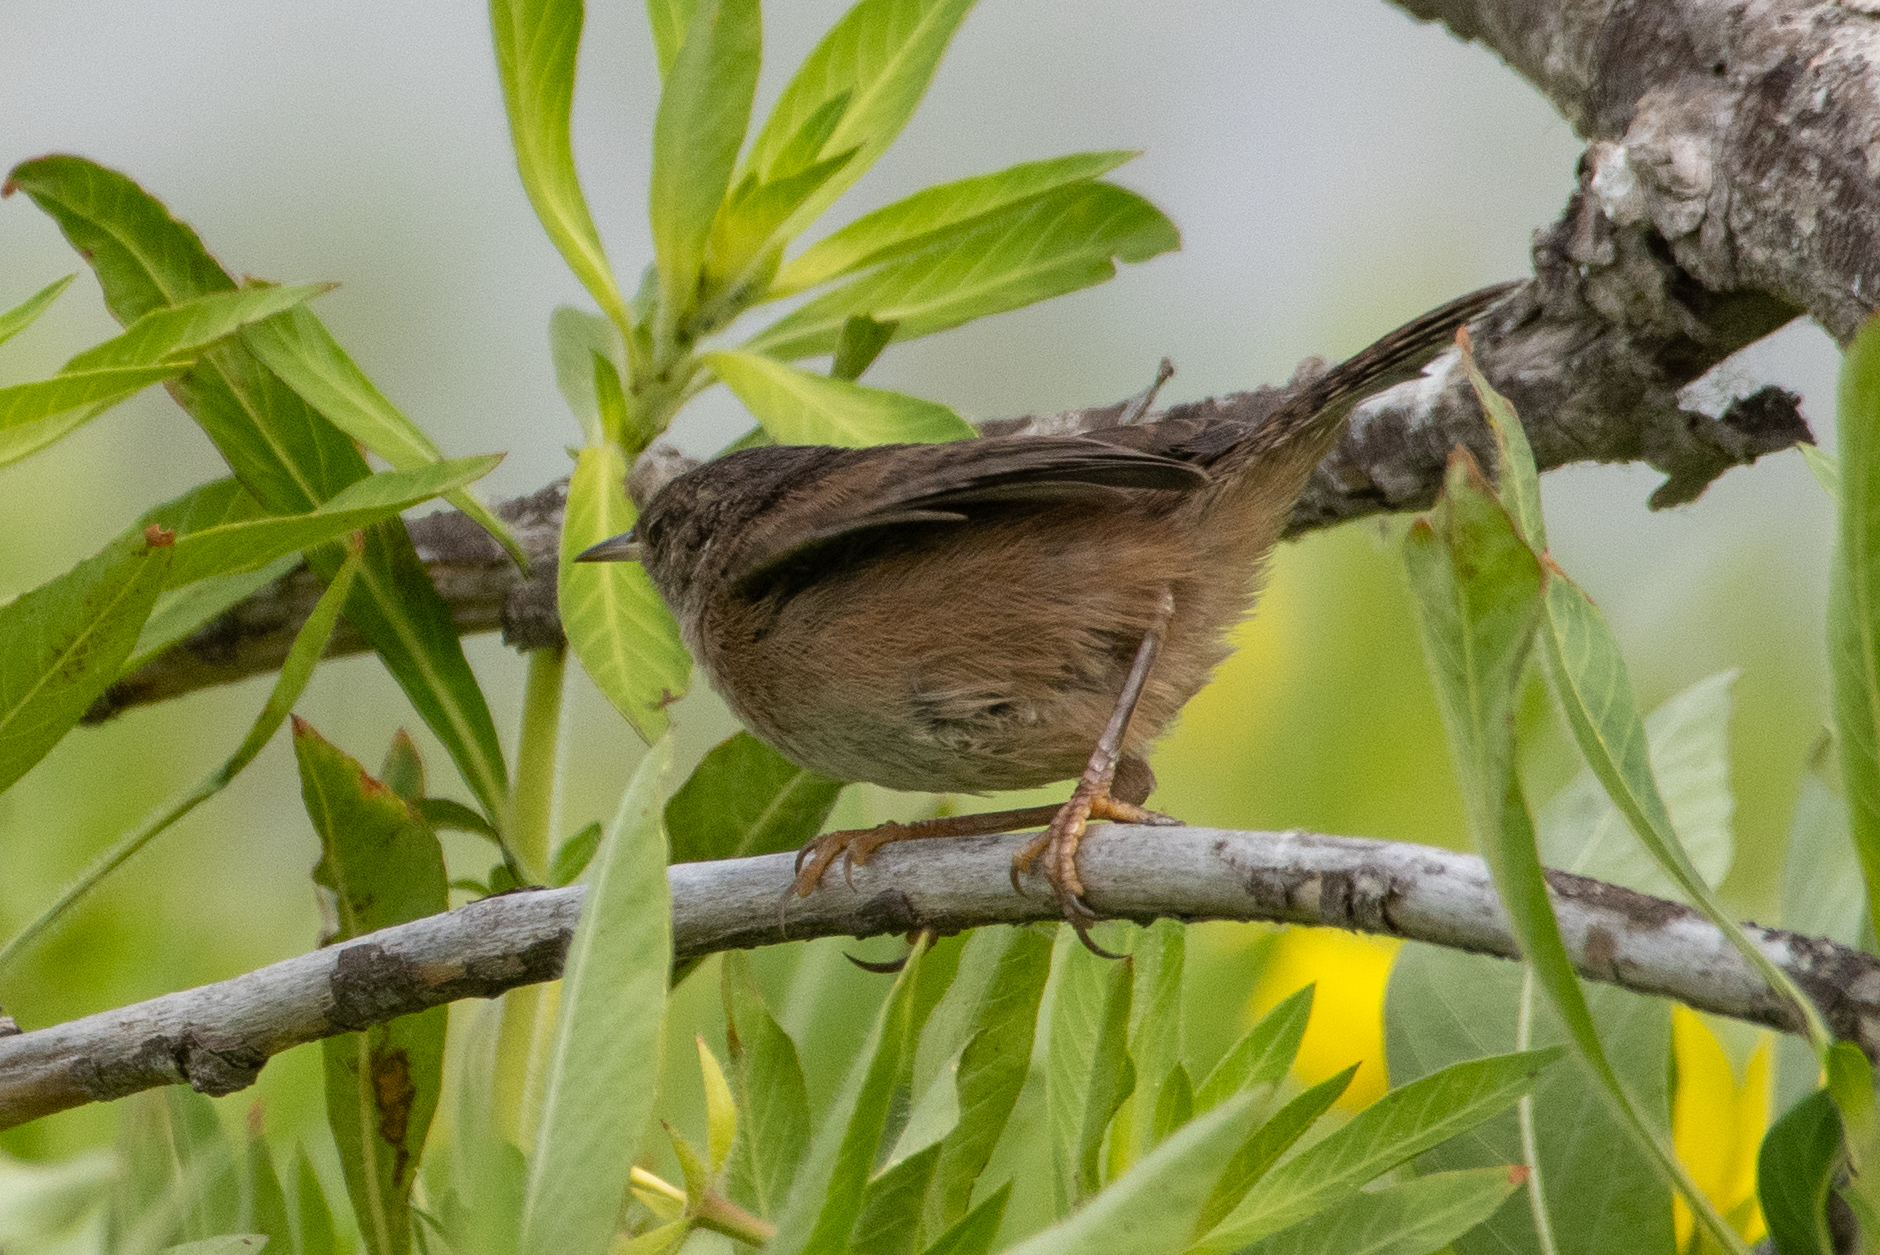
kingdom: Animalia
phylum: Chordata
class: Aves
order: Passeriformes
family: Troglodytidae
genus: Troglodytes
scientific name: Troglodytes aedon
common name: House wren
